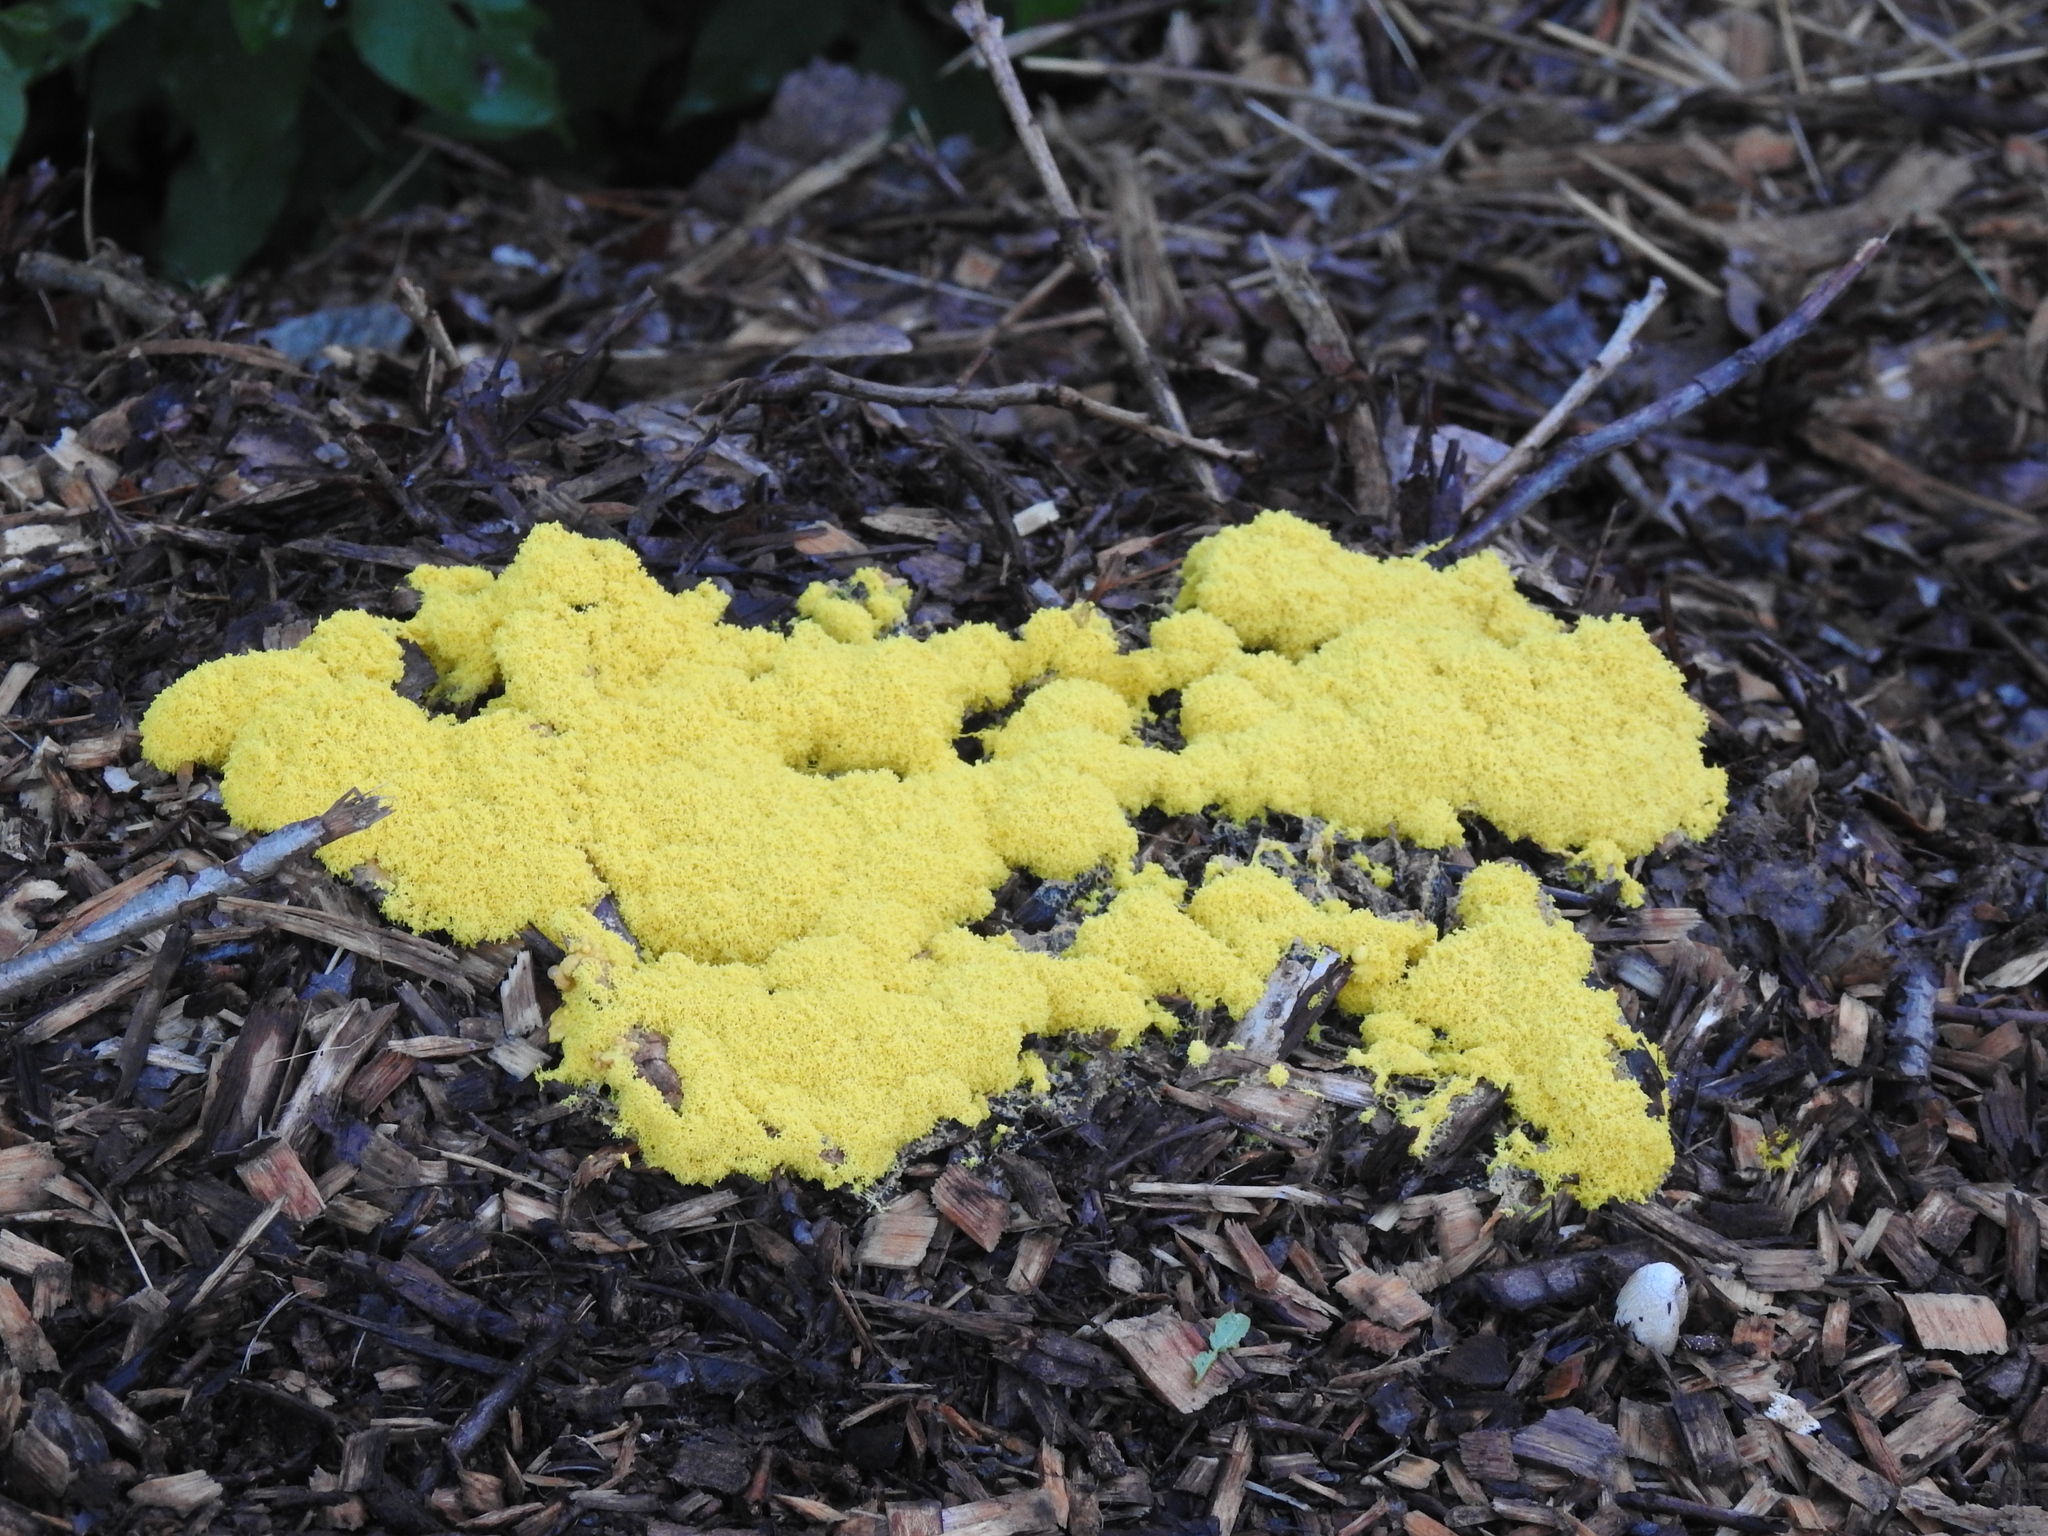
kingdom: Protozoa
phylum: Mycetozoa
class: Myxomycetes
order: Physarales
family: Physaraceae
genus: Fuligo
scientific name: Fuligo septica
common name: Dog vomit slime mold
